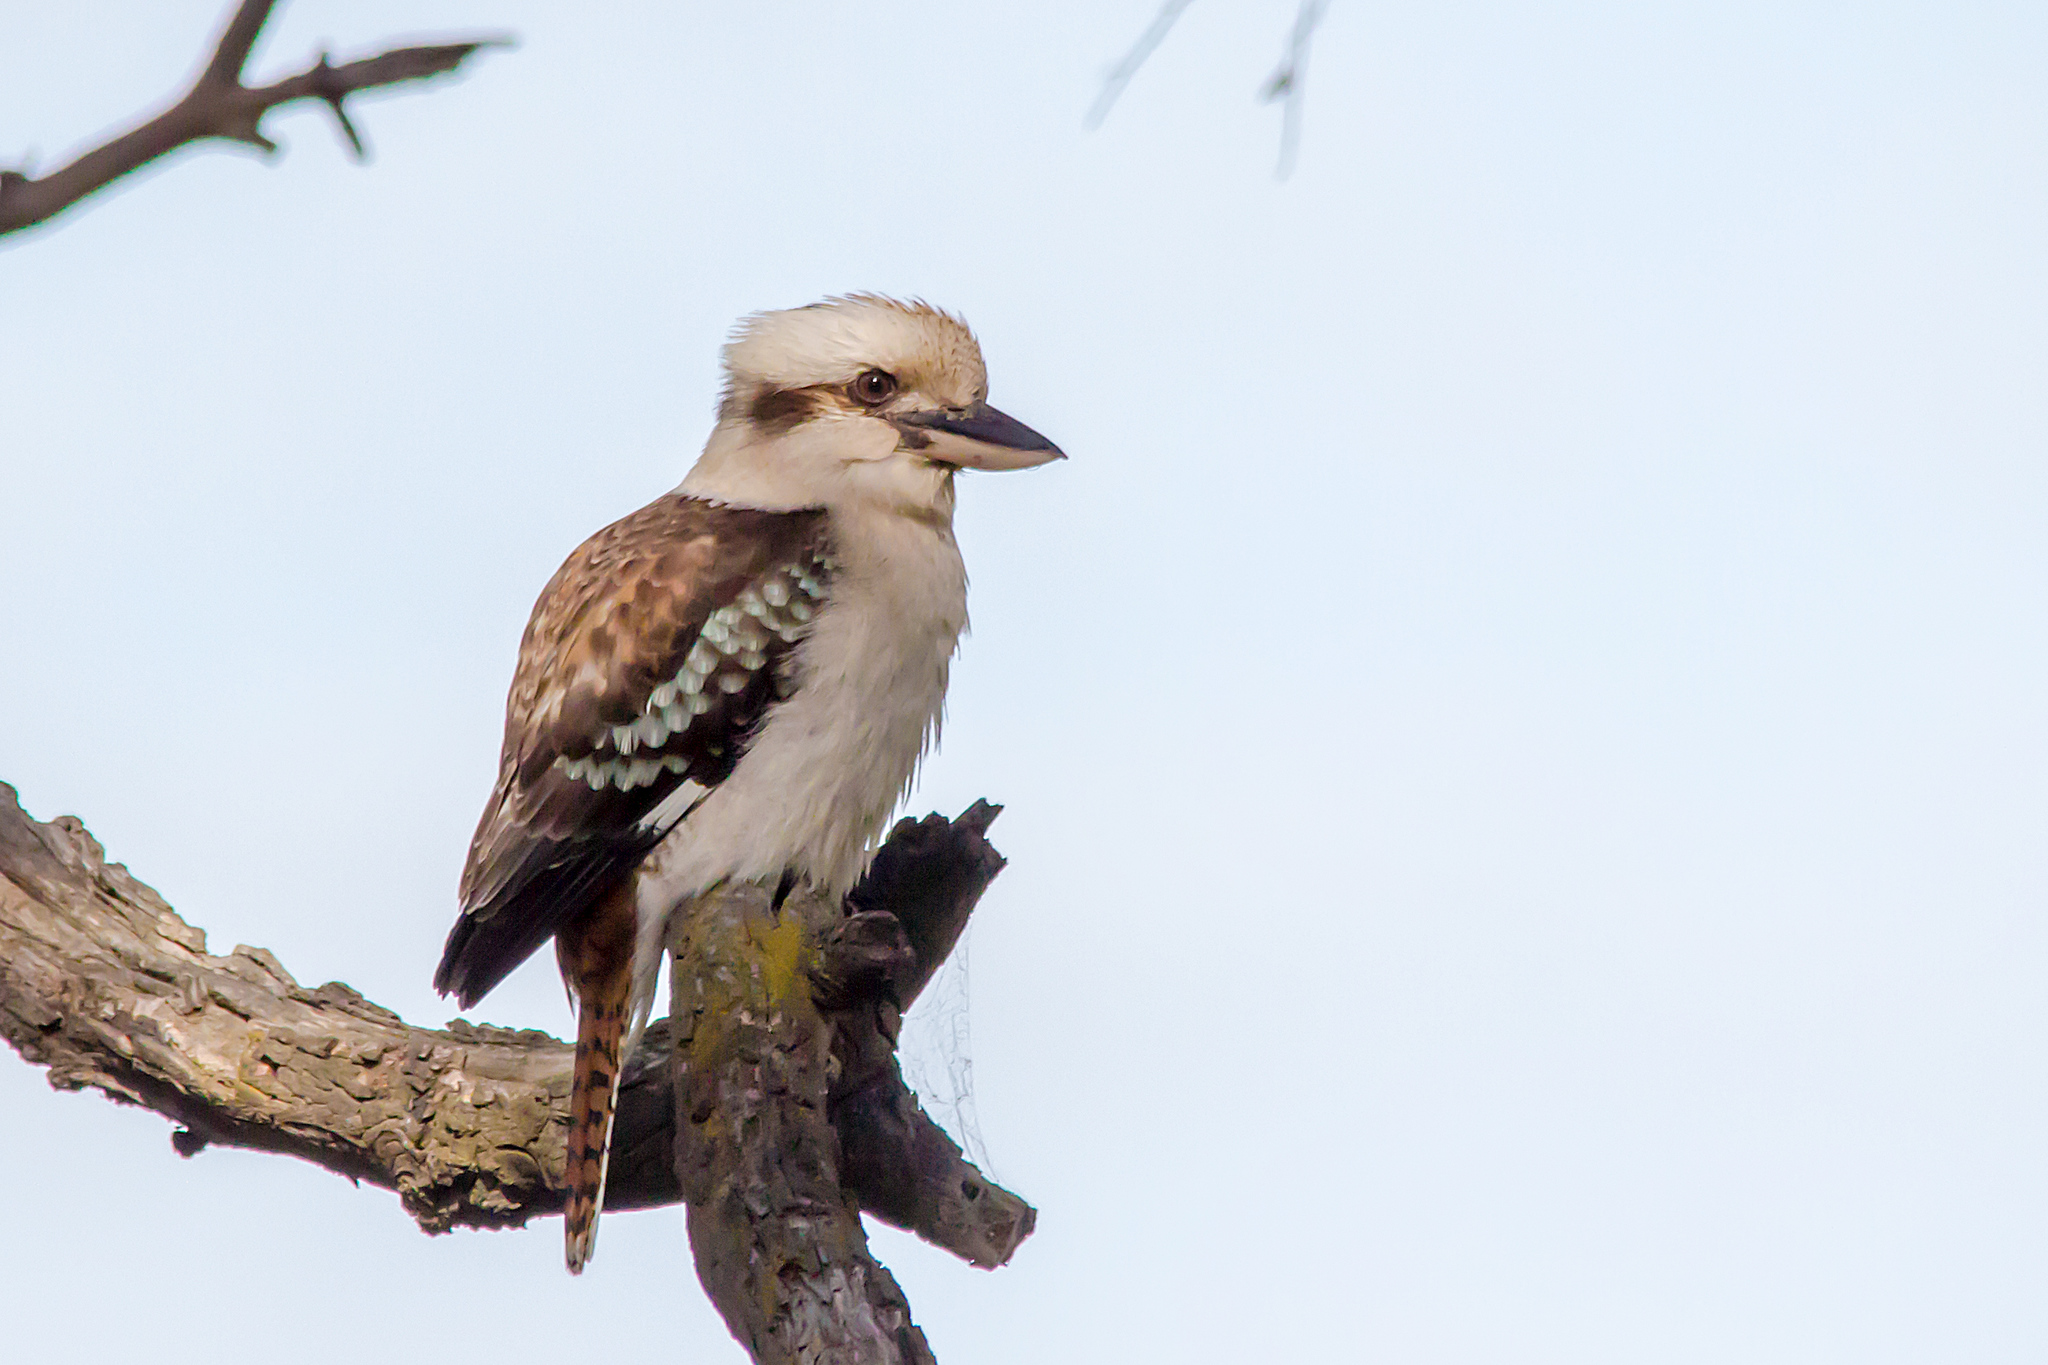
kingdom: Animalia
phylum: Chordata
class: Aves
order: Coraciiformes
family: Alcedinidae
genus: Dacelo
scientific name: Dacelo novaeguineae
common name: Laughing kookaburra
